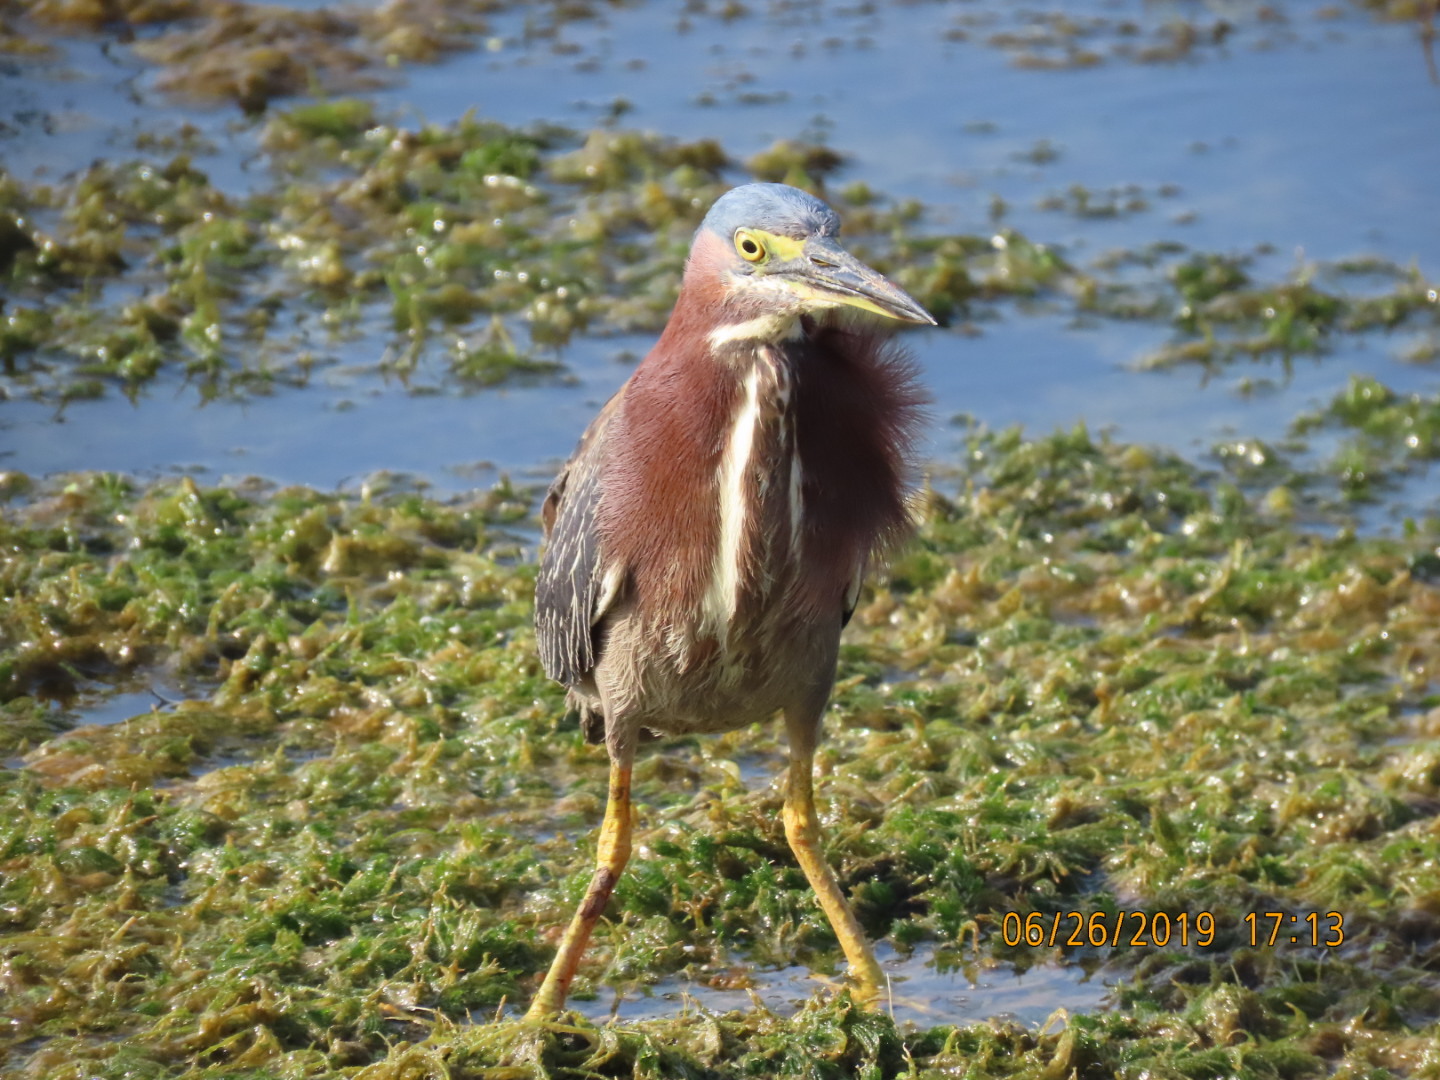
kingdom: Animalia
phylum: Chordata
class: Aves
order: Pelecaniformes
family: Ardeidae
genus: Butorides
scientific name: Butorides virescens
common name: Green heron
